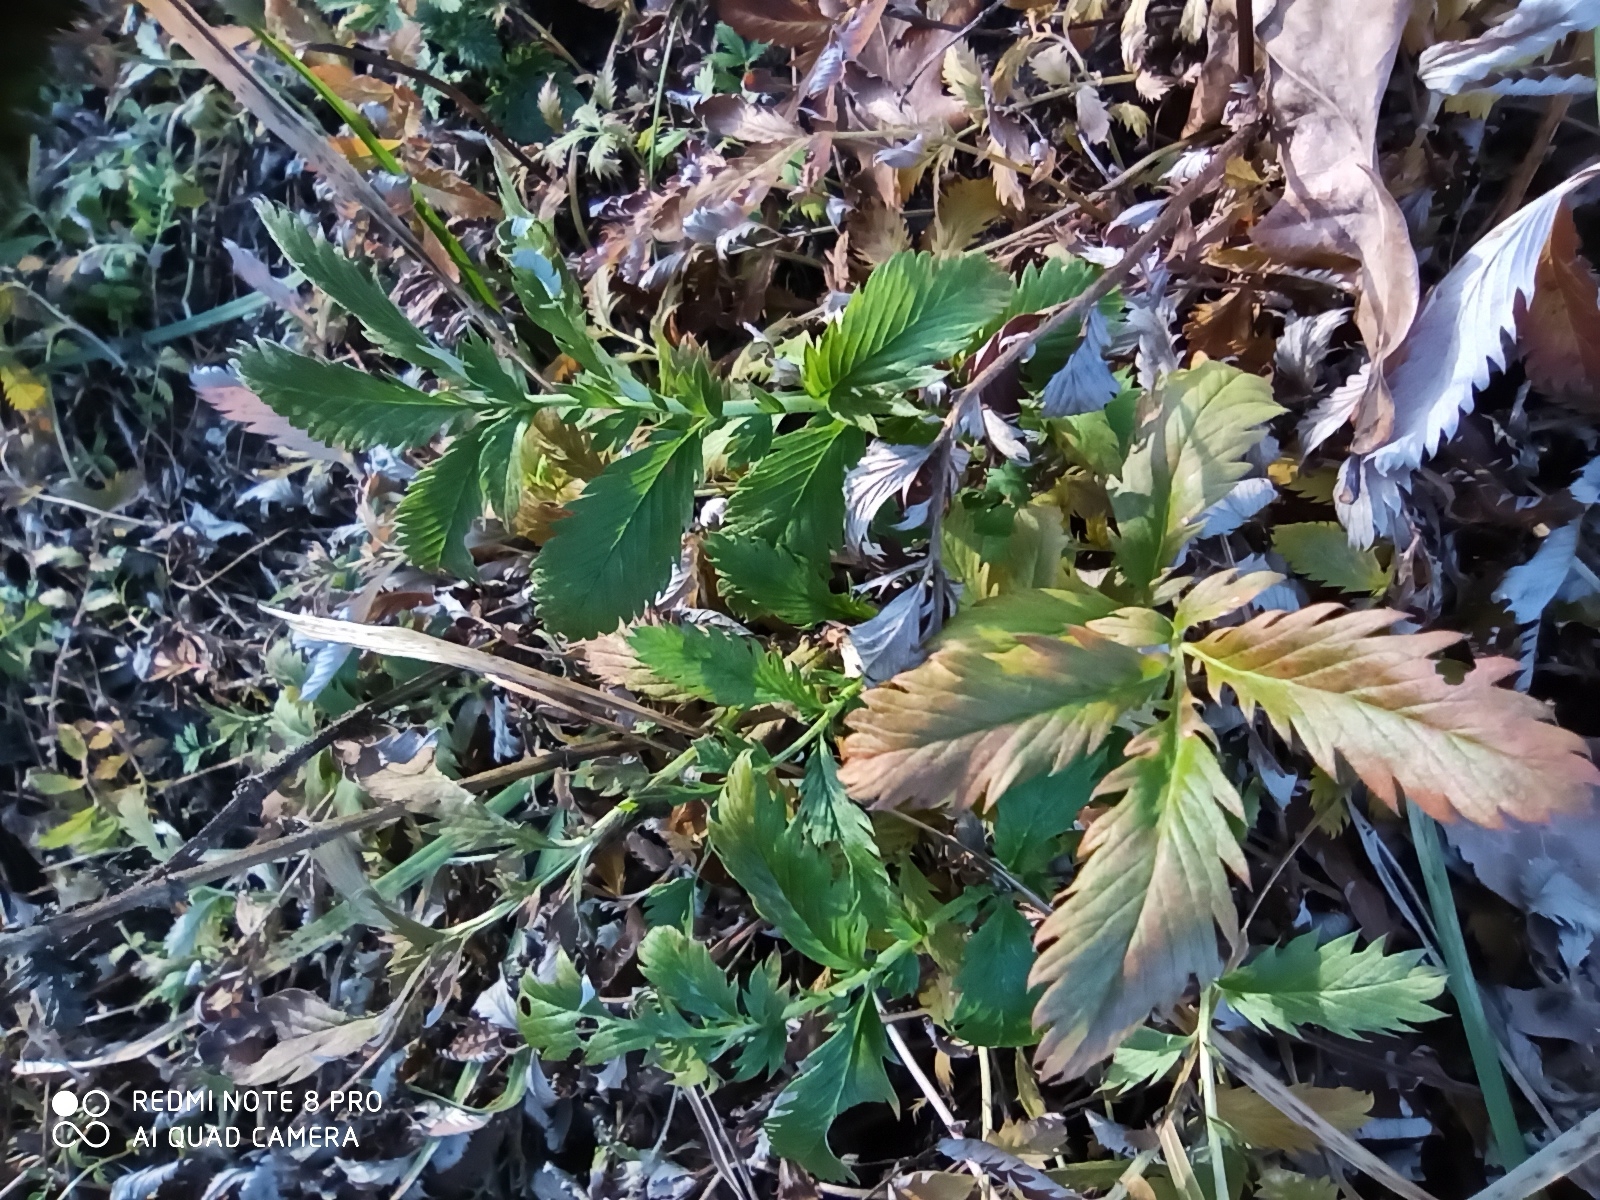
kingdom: Plantae
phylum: Tracheophyta
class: Magnoliopsida
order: Rosales
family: Rosaceae
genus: Argentina
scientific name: Argentina anserina
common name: Common silverweed
